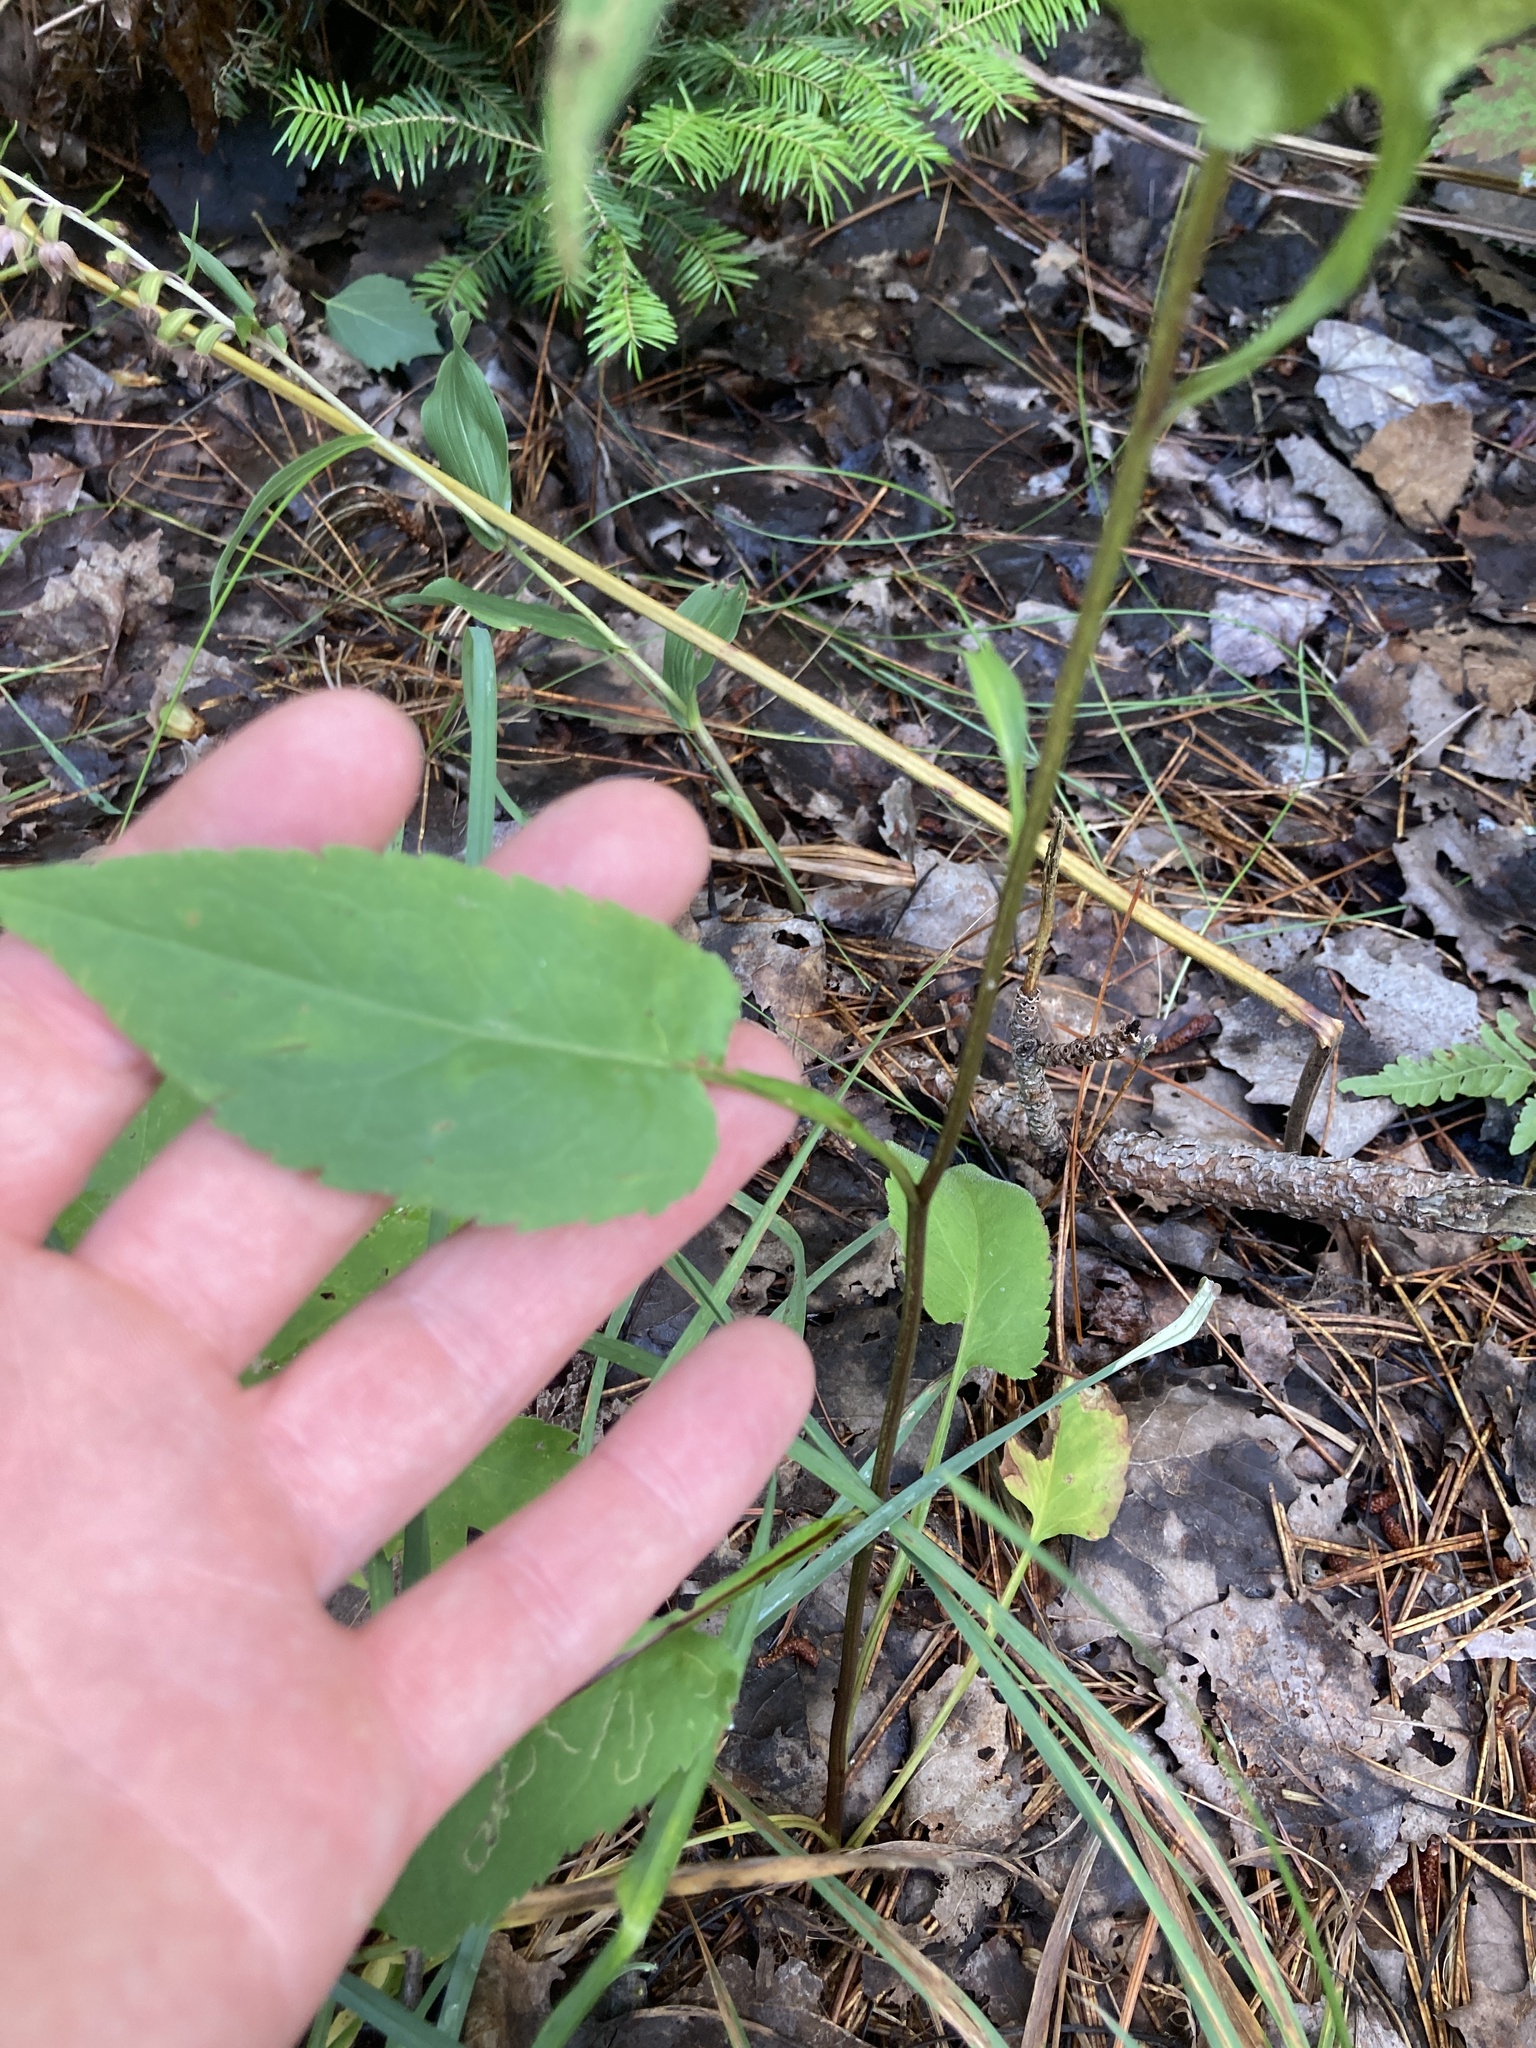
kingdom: Plantae
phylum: Tracheophyta
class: Magnoliopsida
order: Asterales
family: Asteraceae
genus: Symphyotrichum
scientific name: Symphyotrichum urophyllum
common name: Arrow-leaved aster
